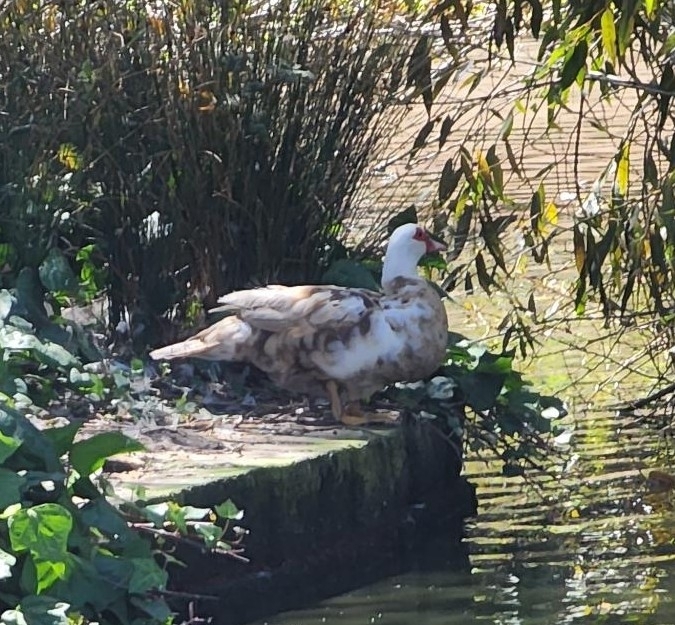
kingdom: Animalia
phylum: Chordata
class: Aves
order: Anseriformes
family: Anatidae
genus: Cairina
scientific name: Cairina moschata
